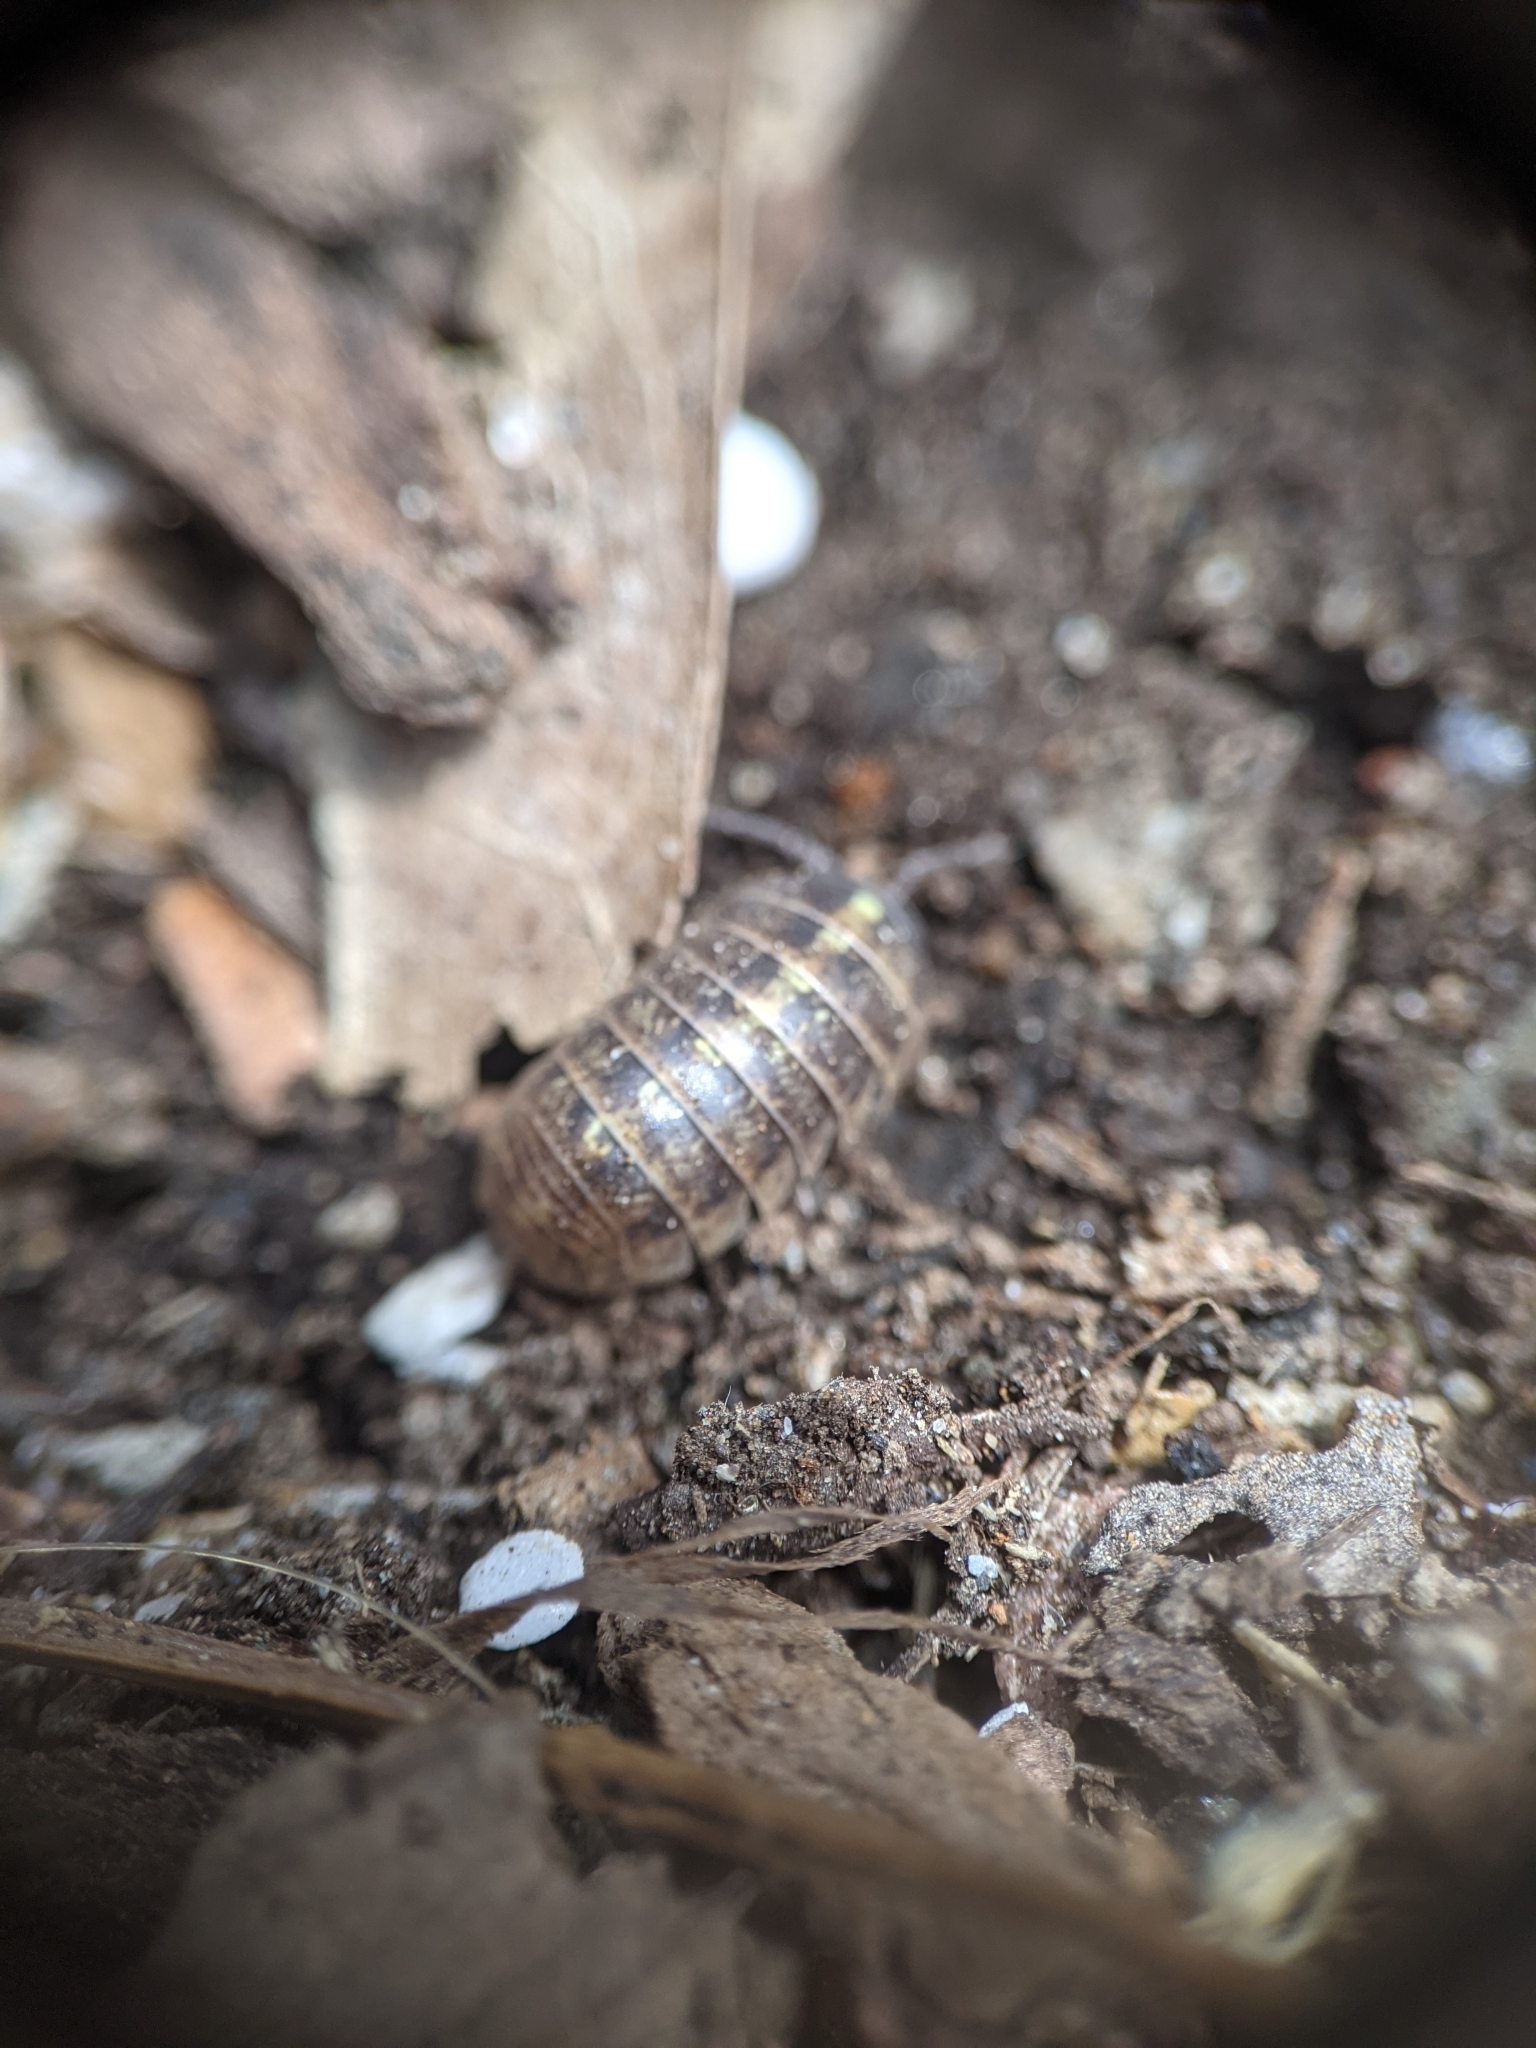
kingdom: Animalia
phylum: Arthropoda
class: Malacostraca
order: Isopoda
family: Armadillidiidae
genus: Armadillidium
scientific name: Armadillidium vulgare
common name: Common pill woodlouse
